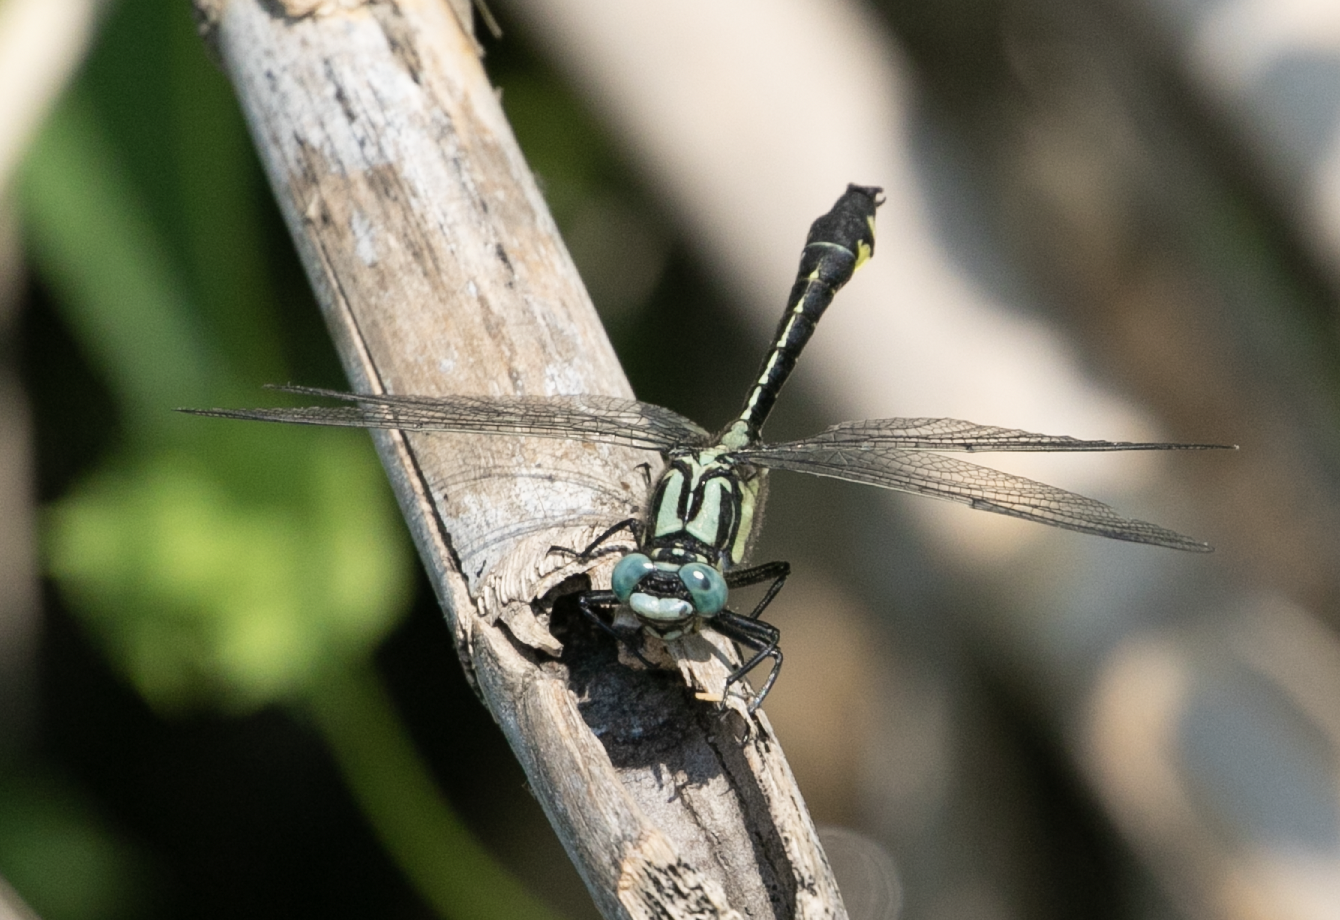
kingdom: Animalia
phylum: Arthropoda
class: Insecta
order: Odonata
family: Gomphidae
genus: Gomphus
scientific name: Gomphus vulgatissimus
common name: Club-tailed dragonfly
